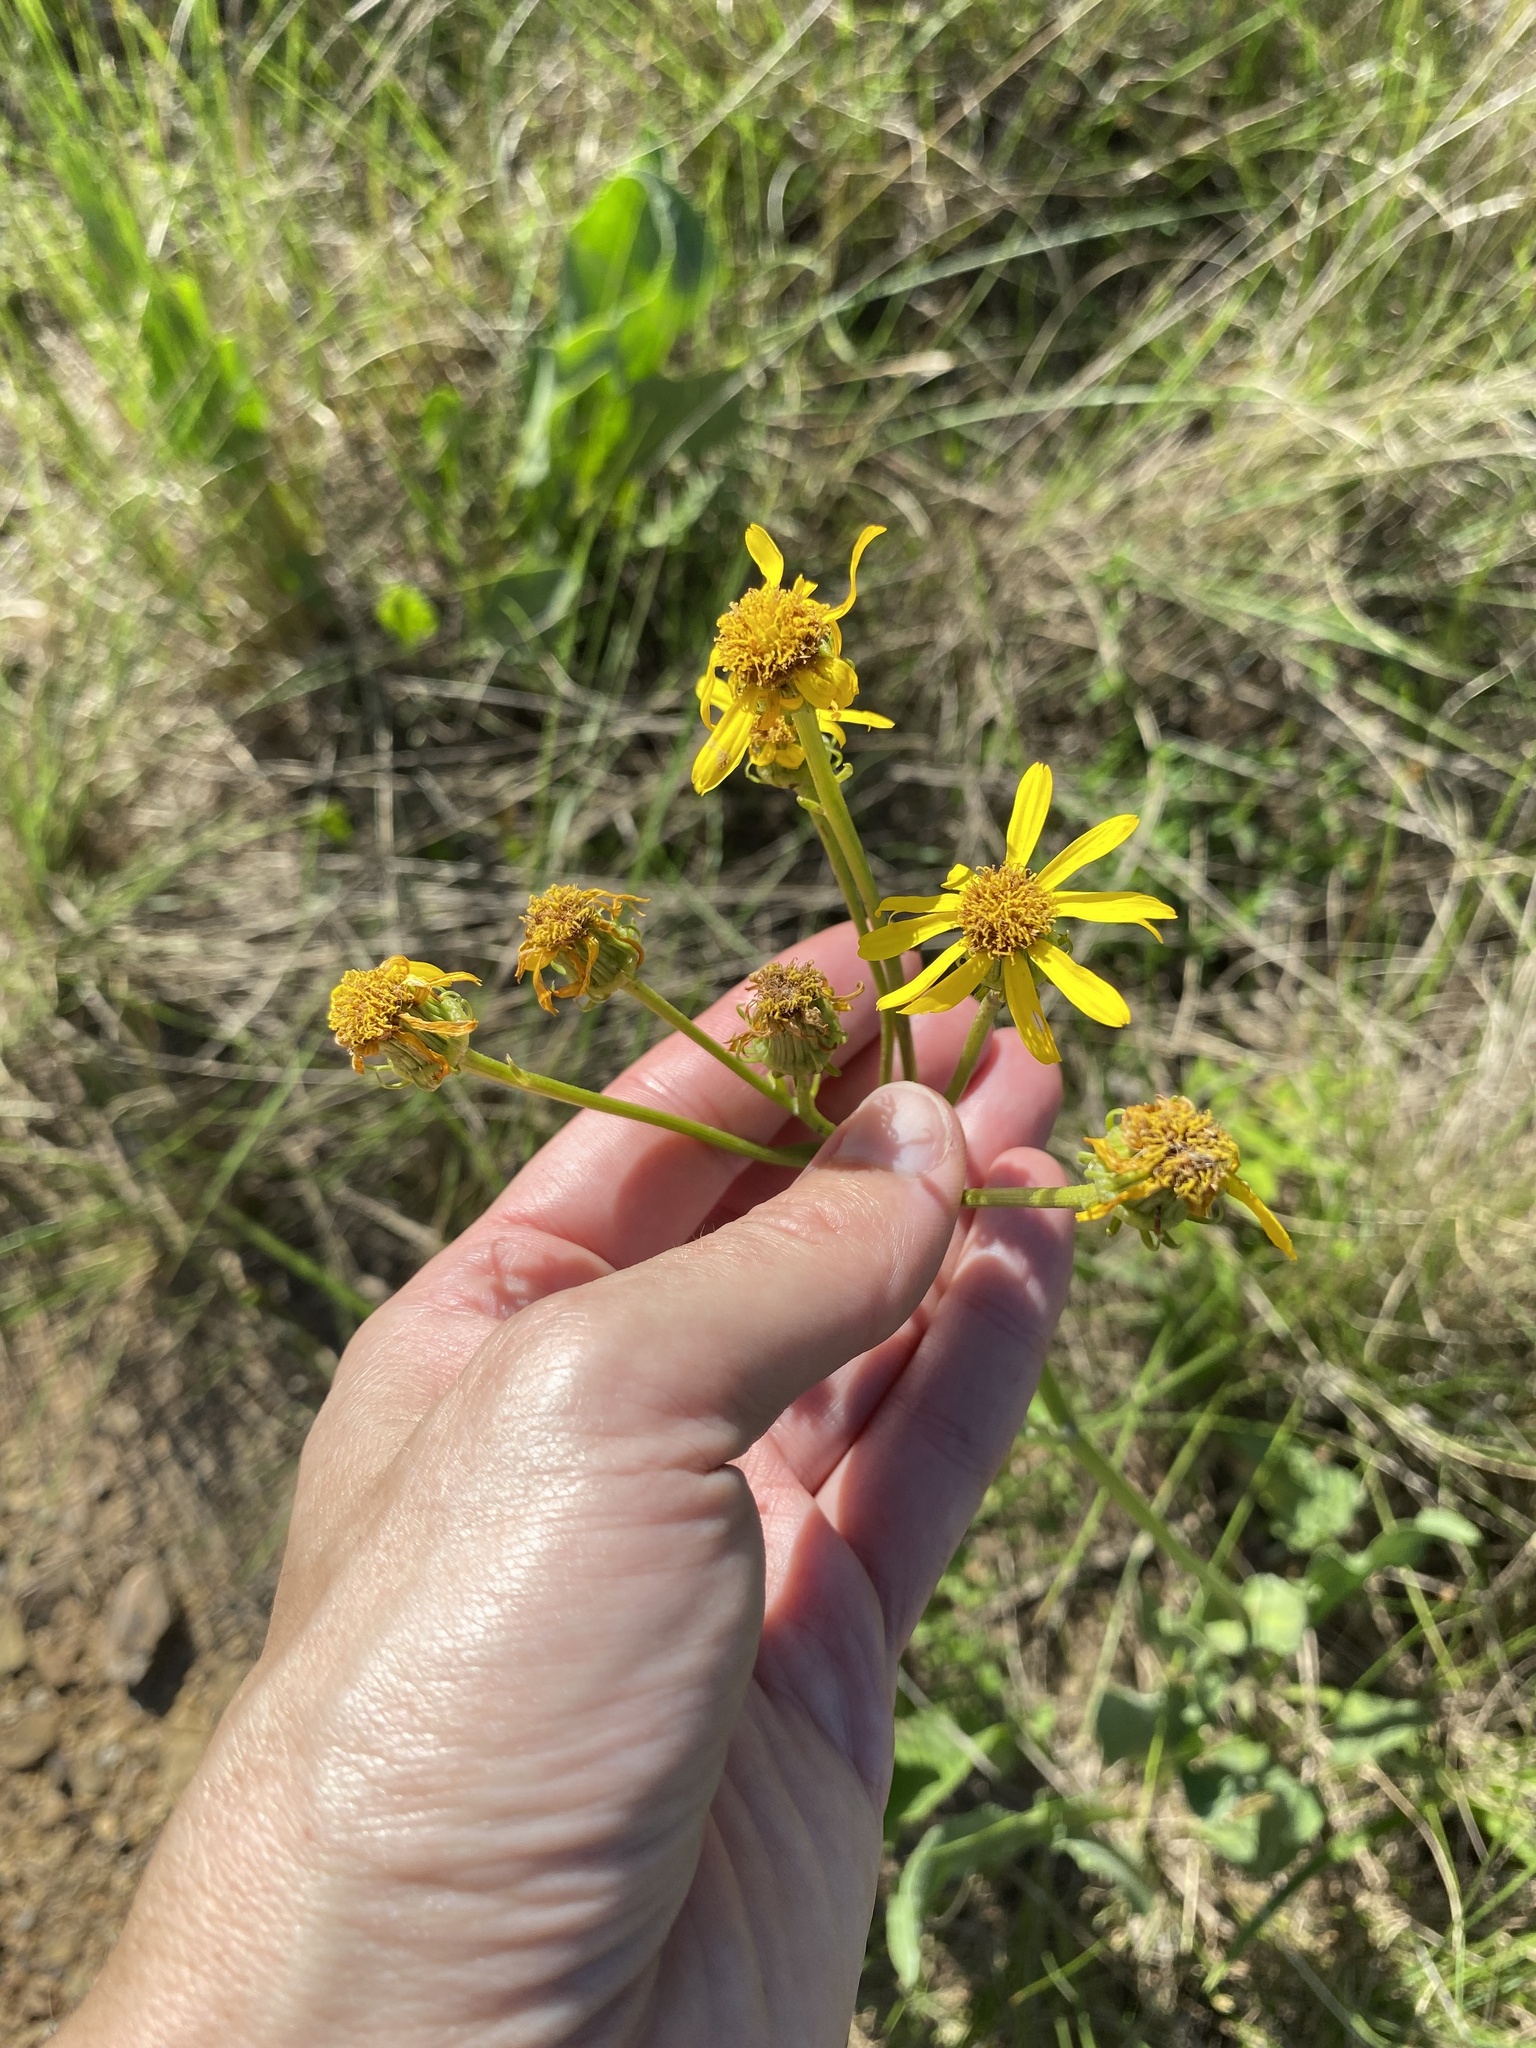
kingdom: Plantae
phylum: Tracheophyta
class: Magnoliopsida
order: Asterales
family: Asteraceae
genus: Senecio
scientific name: Senecio coronatus
